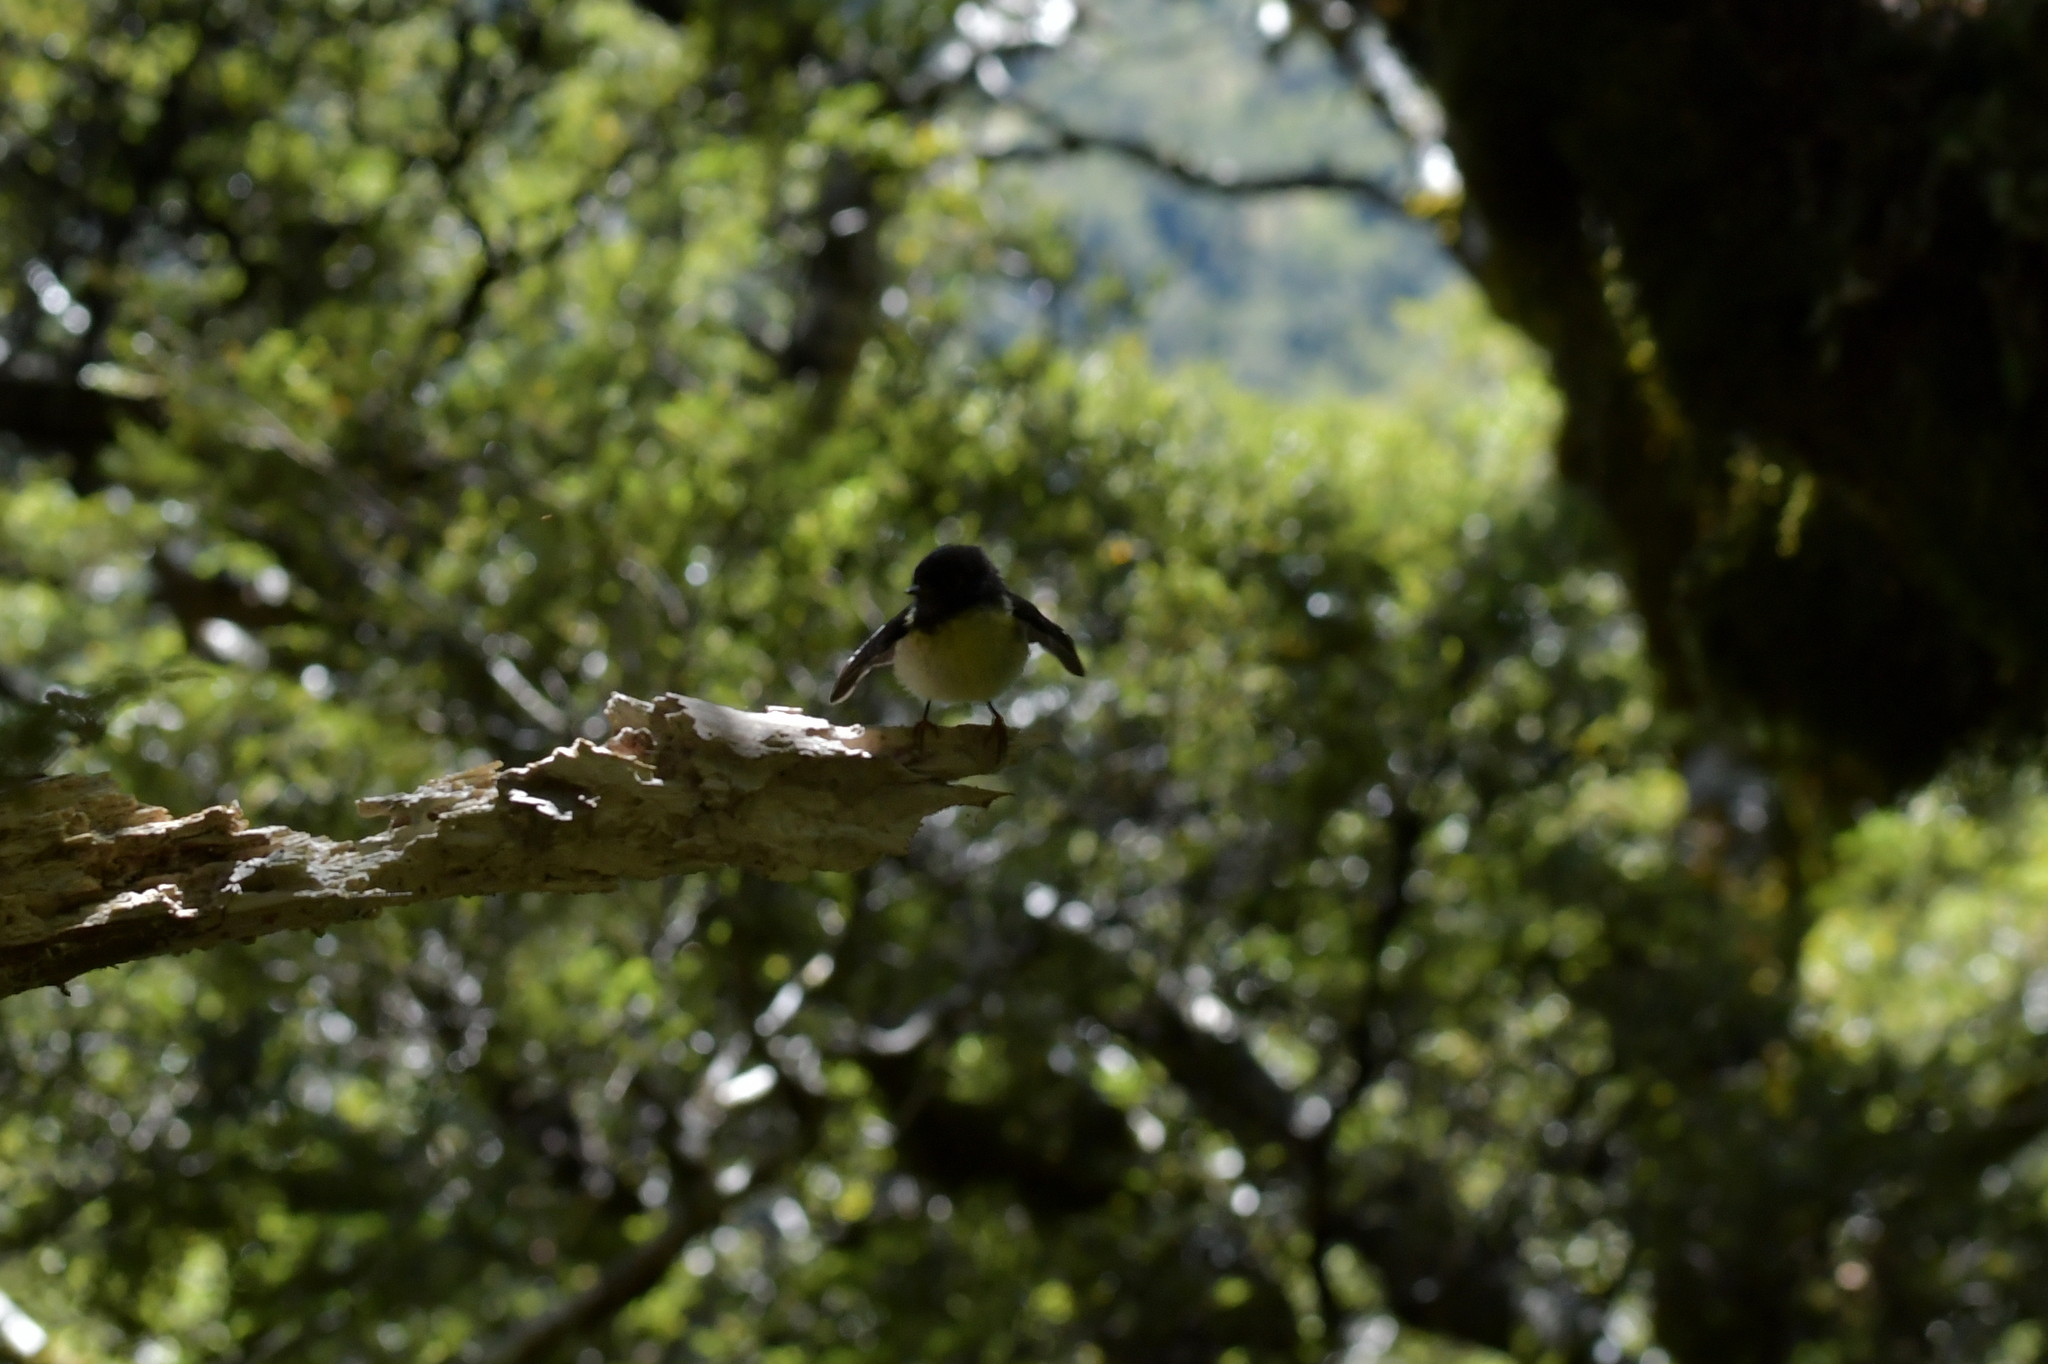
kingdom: Animalia
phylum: Chordata
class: Aves
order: Passeriformes
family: Petroicidae
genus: Petroica
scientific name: Petroica macrocephala
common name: Tomtit
